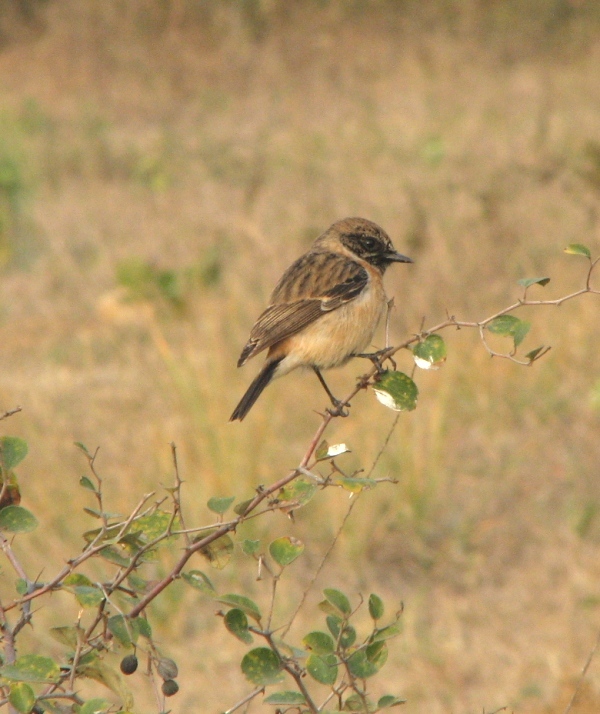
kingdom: Animalia
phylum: Chordata
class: Aves
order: Passeriformes
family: Muscicapidae
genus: Saxicola
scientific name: Saxicola maurus
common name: Siberian stonechat
